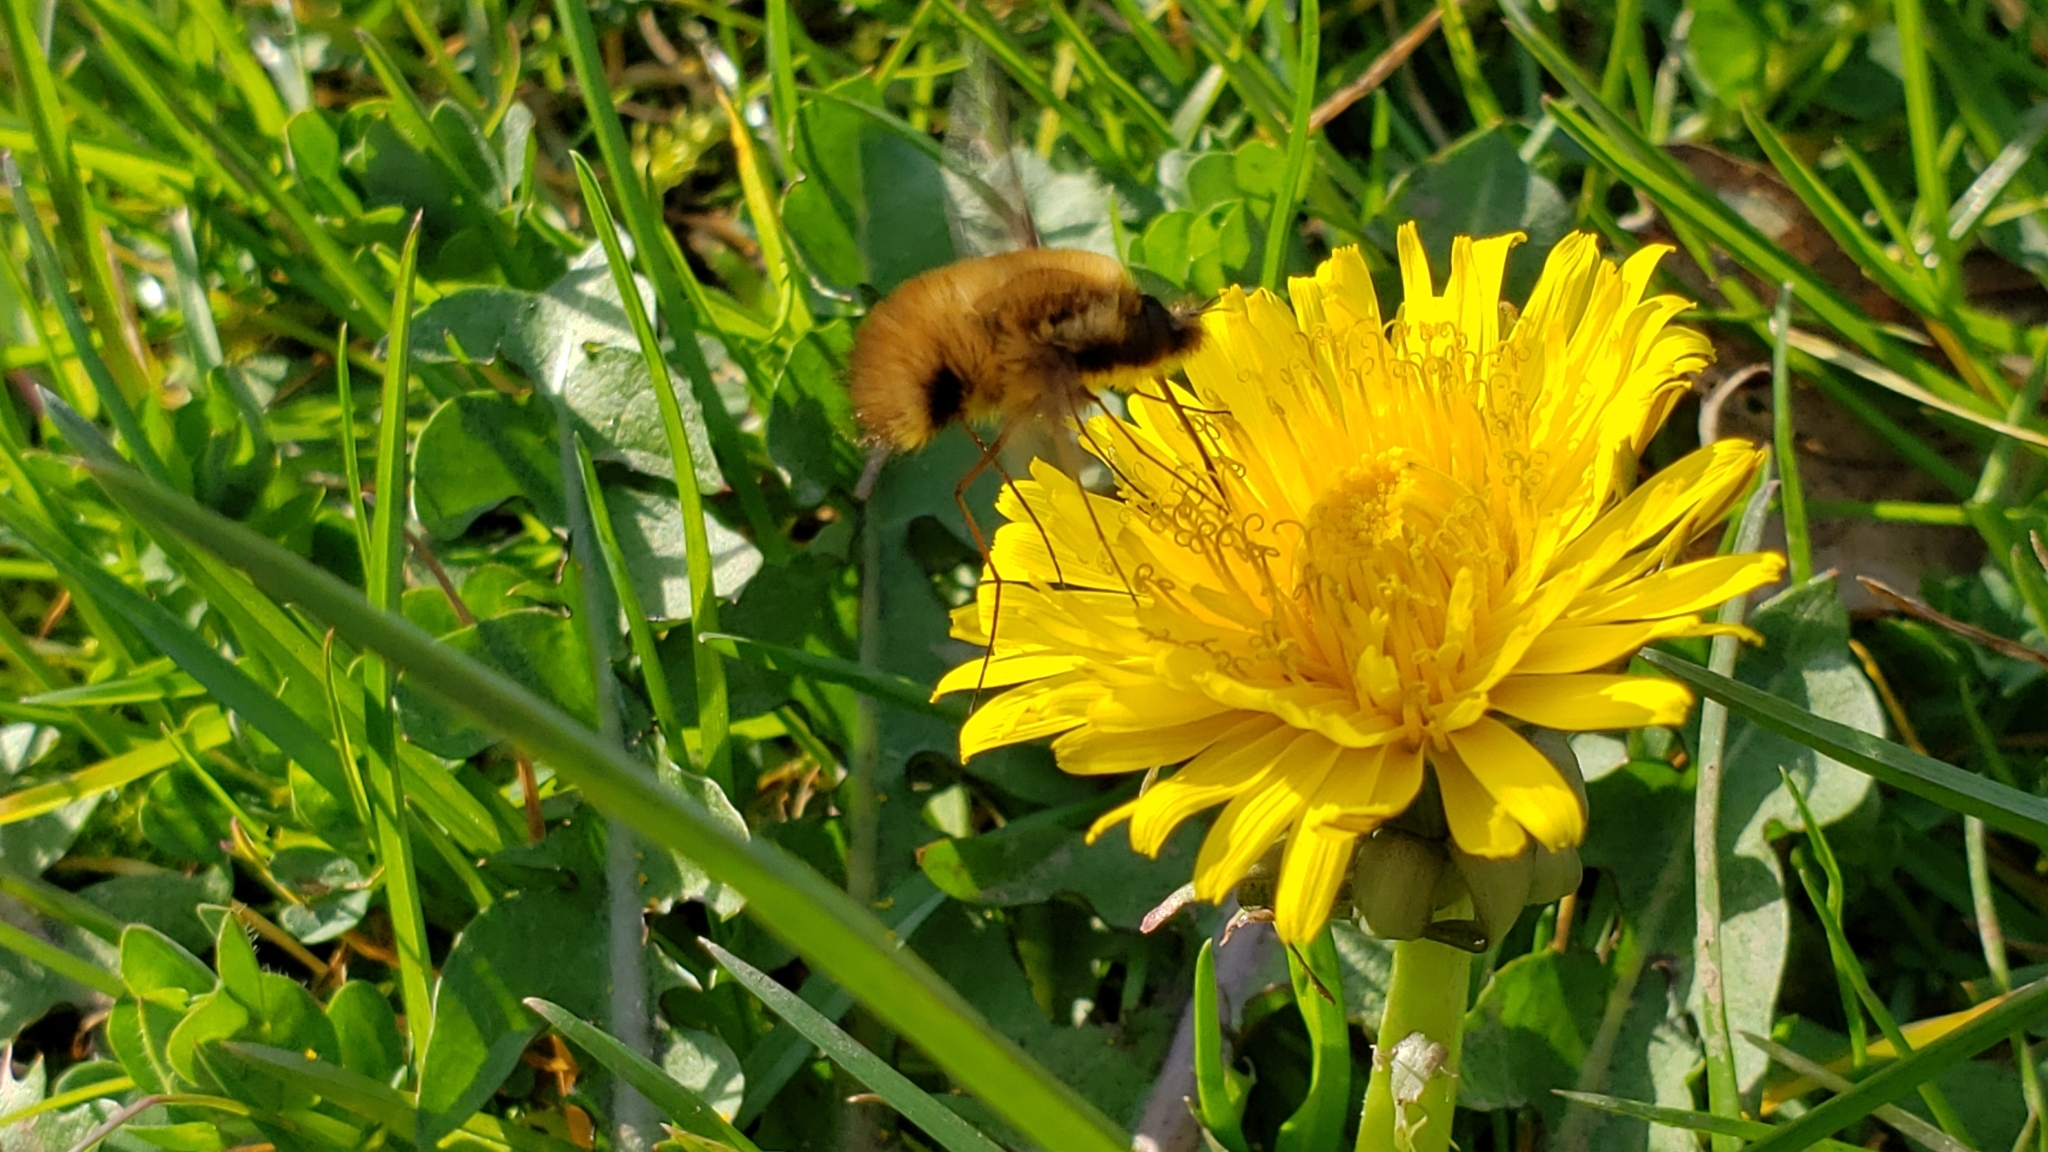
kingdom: Animalia
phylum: Arthropoda
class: Insecta
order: Diptera
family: Bombyliidae
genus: Bombylius
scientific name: Bombylius major
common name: Bee fly
